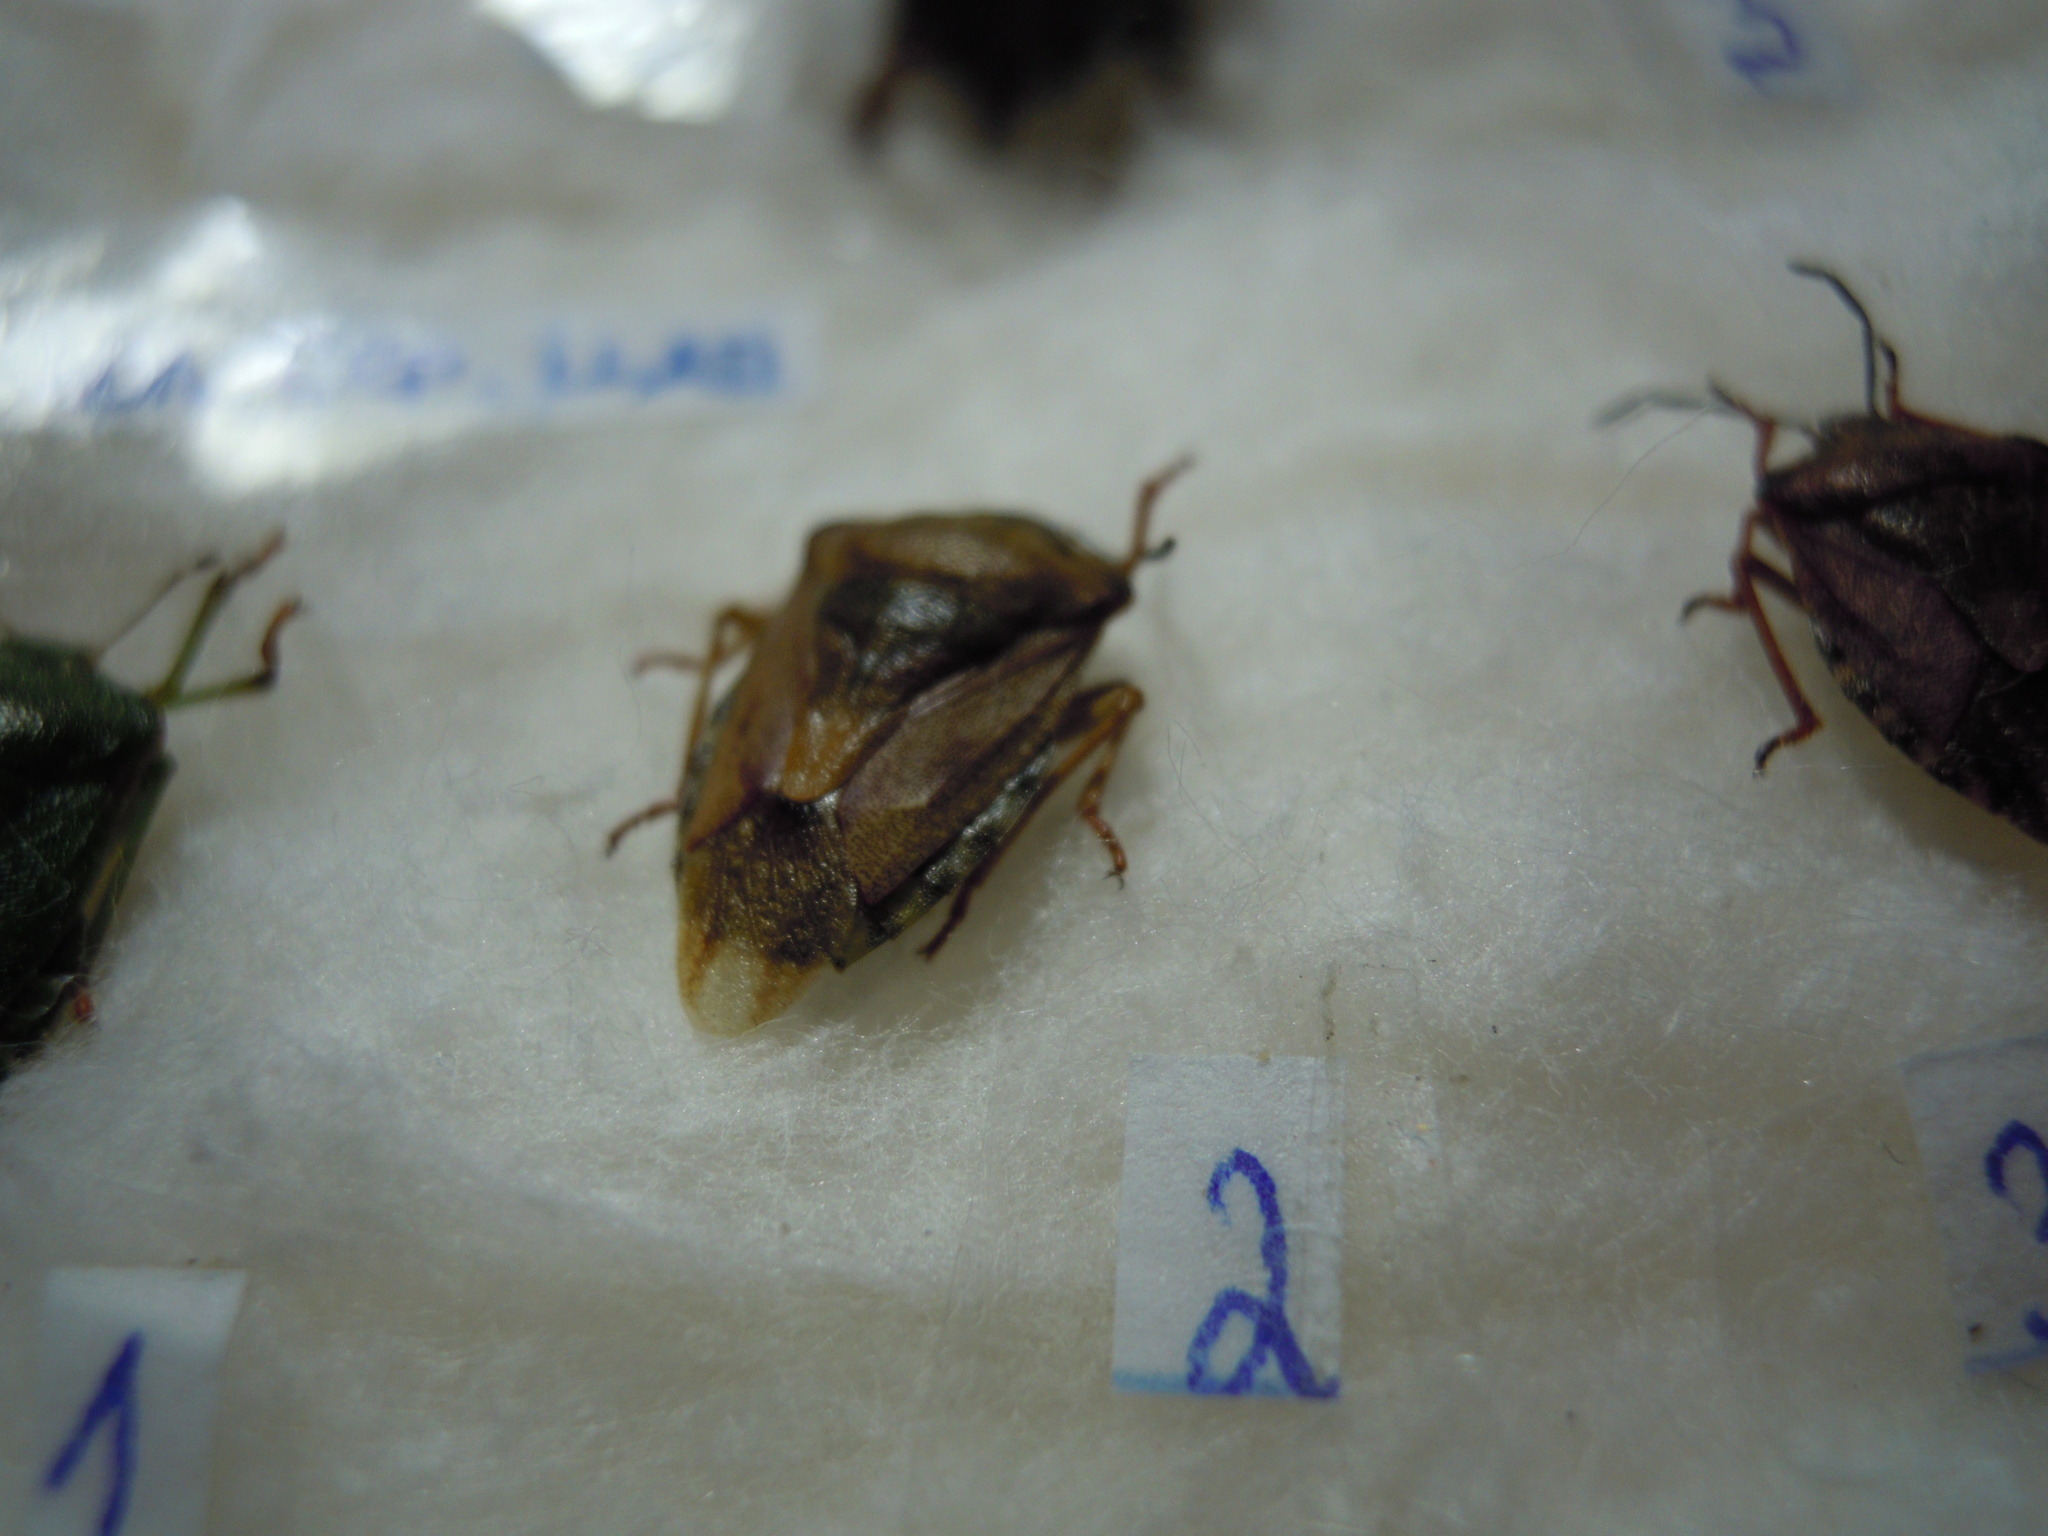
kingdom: Animalia
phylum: Arthropoda
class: Insecta
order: Hemiptera
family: Pentatomidae
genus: Carpocoris
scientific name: Carpocoris purpureipennis
